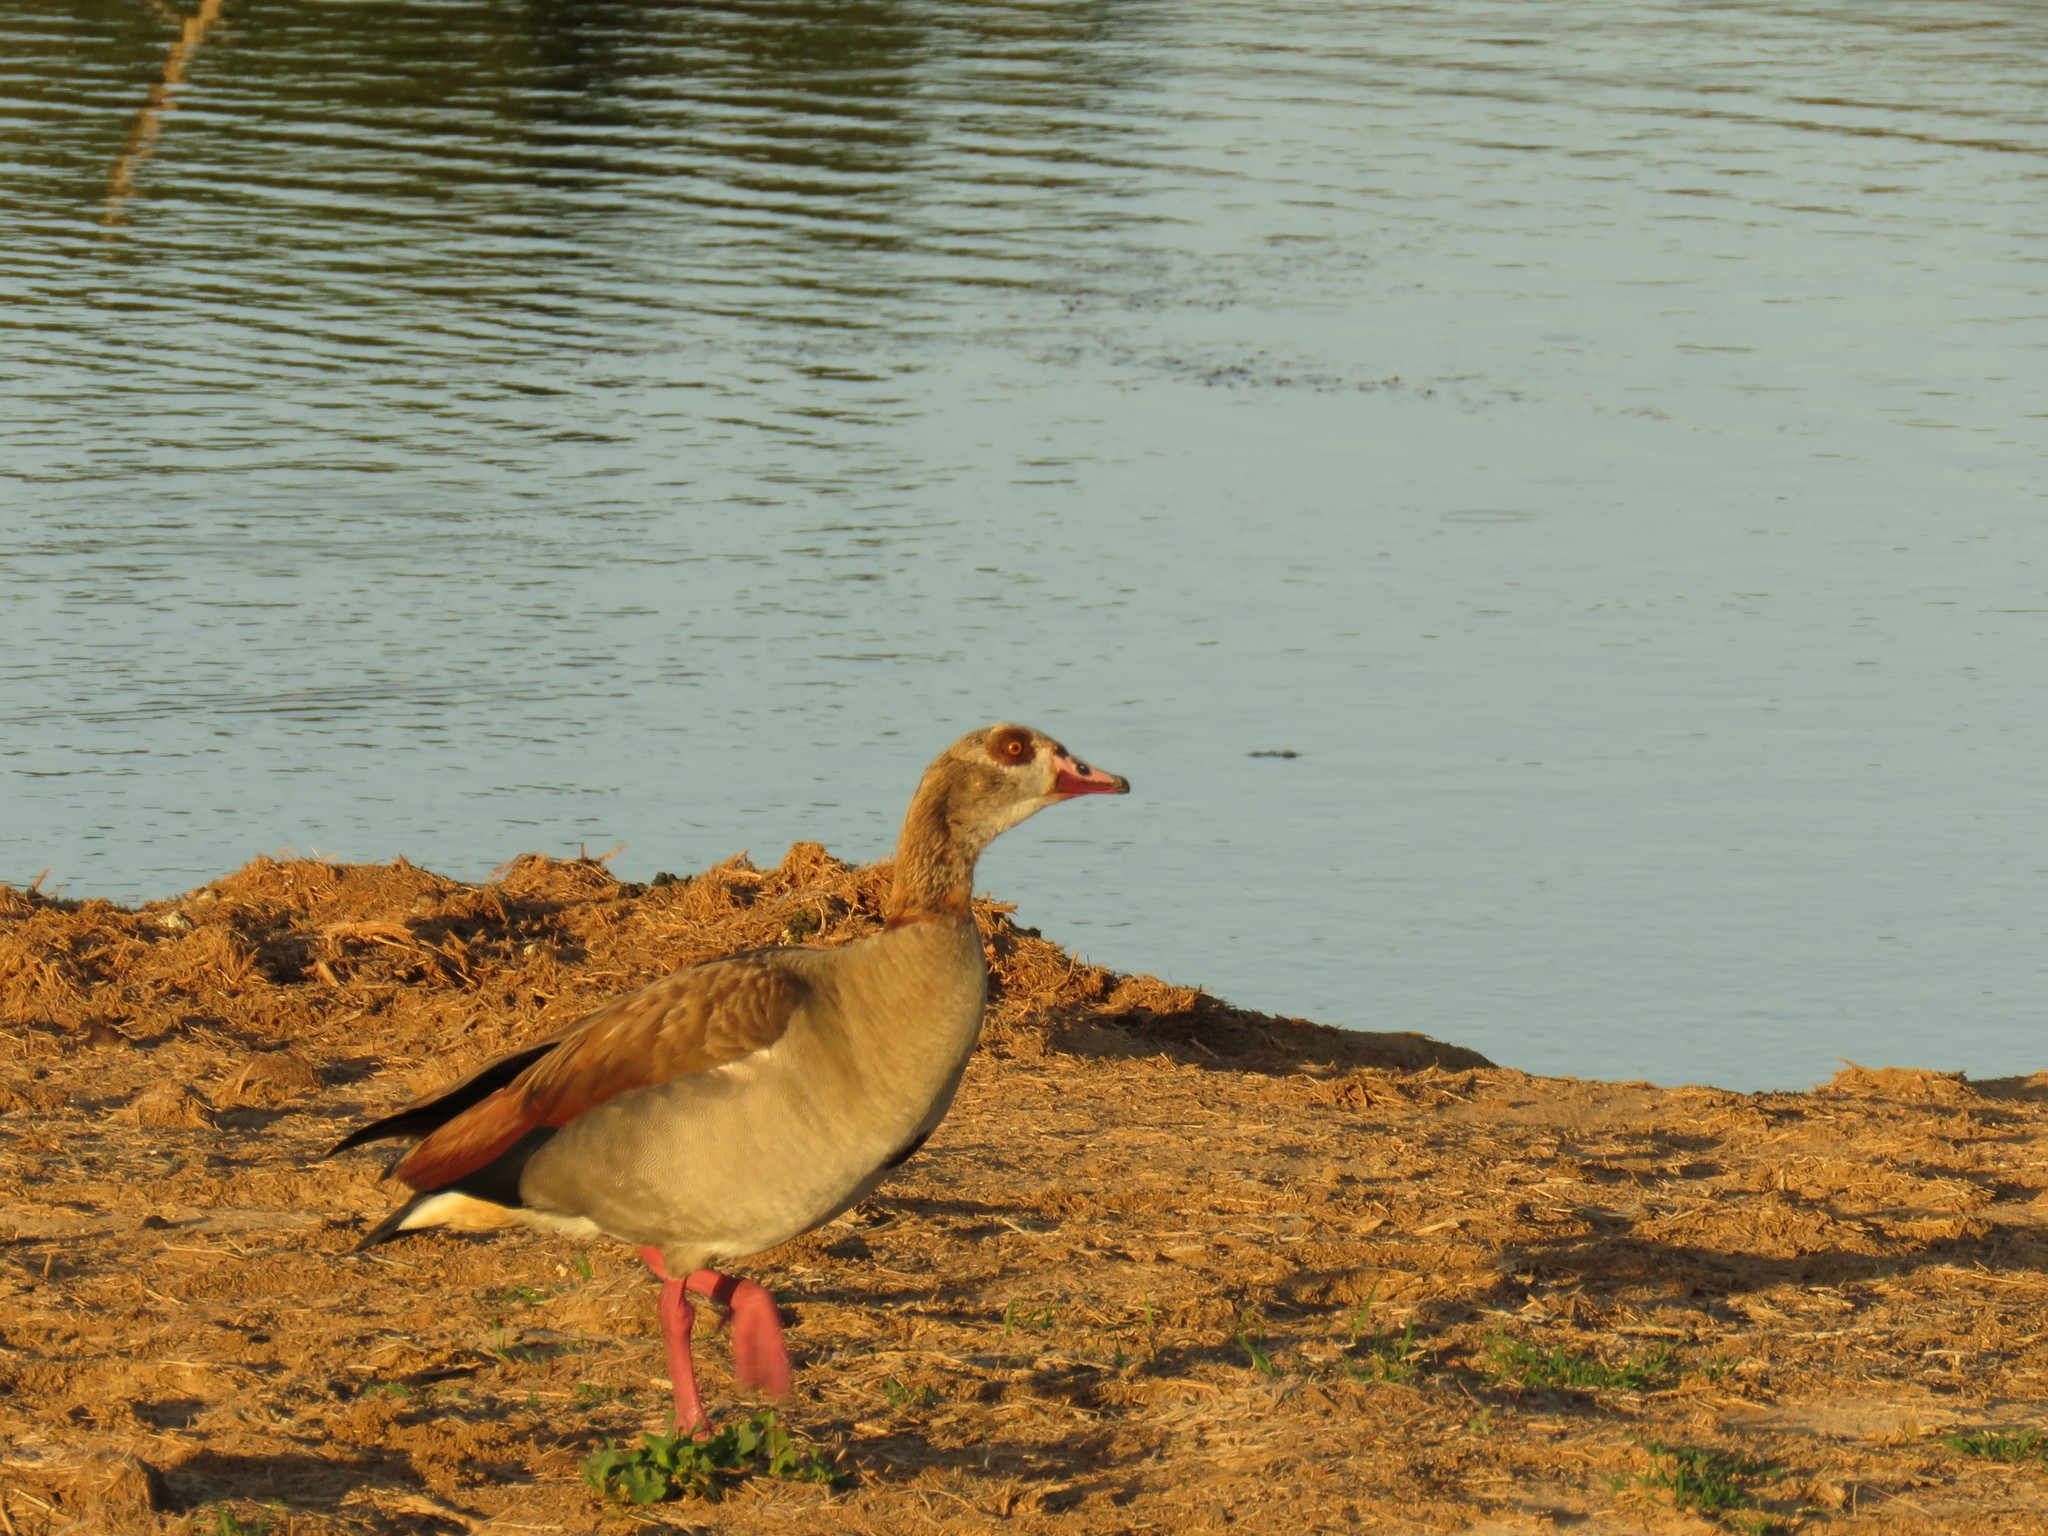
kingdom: Animalia
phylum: Chordata
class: Aves
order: Anseriformes
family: Anatidae
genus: Alopochen
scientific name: Alopochen aegyptiaca
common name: Egyptian goose
